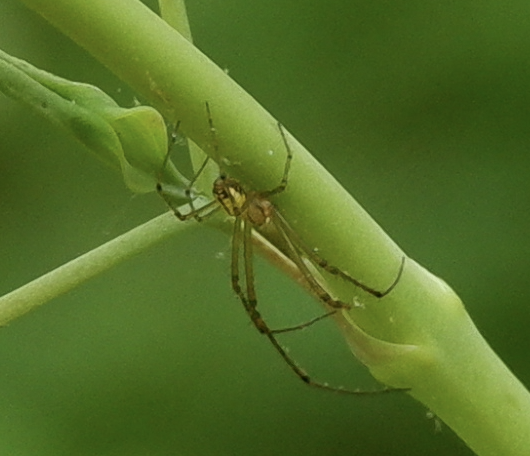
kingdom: Animalia
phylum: Arthropoda
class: Arachnida
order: Araneae
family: Tetragnathidae
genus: Leucauge
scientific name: Leucauge venusta
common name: Longjawed orb weavers
